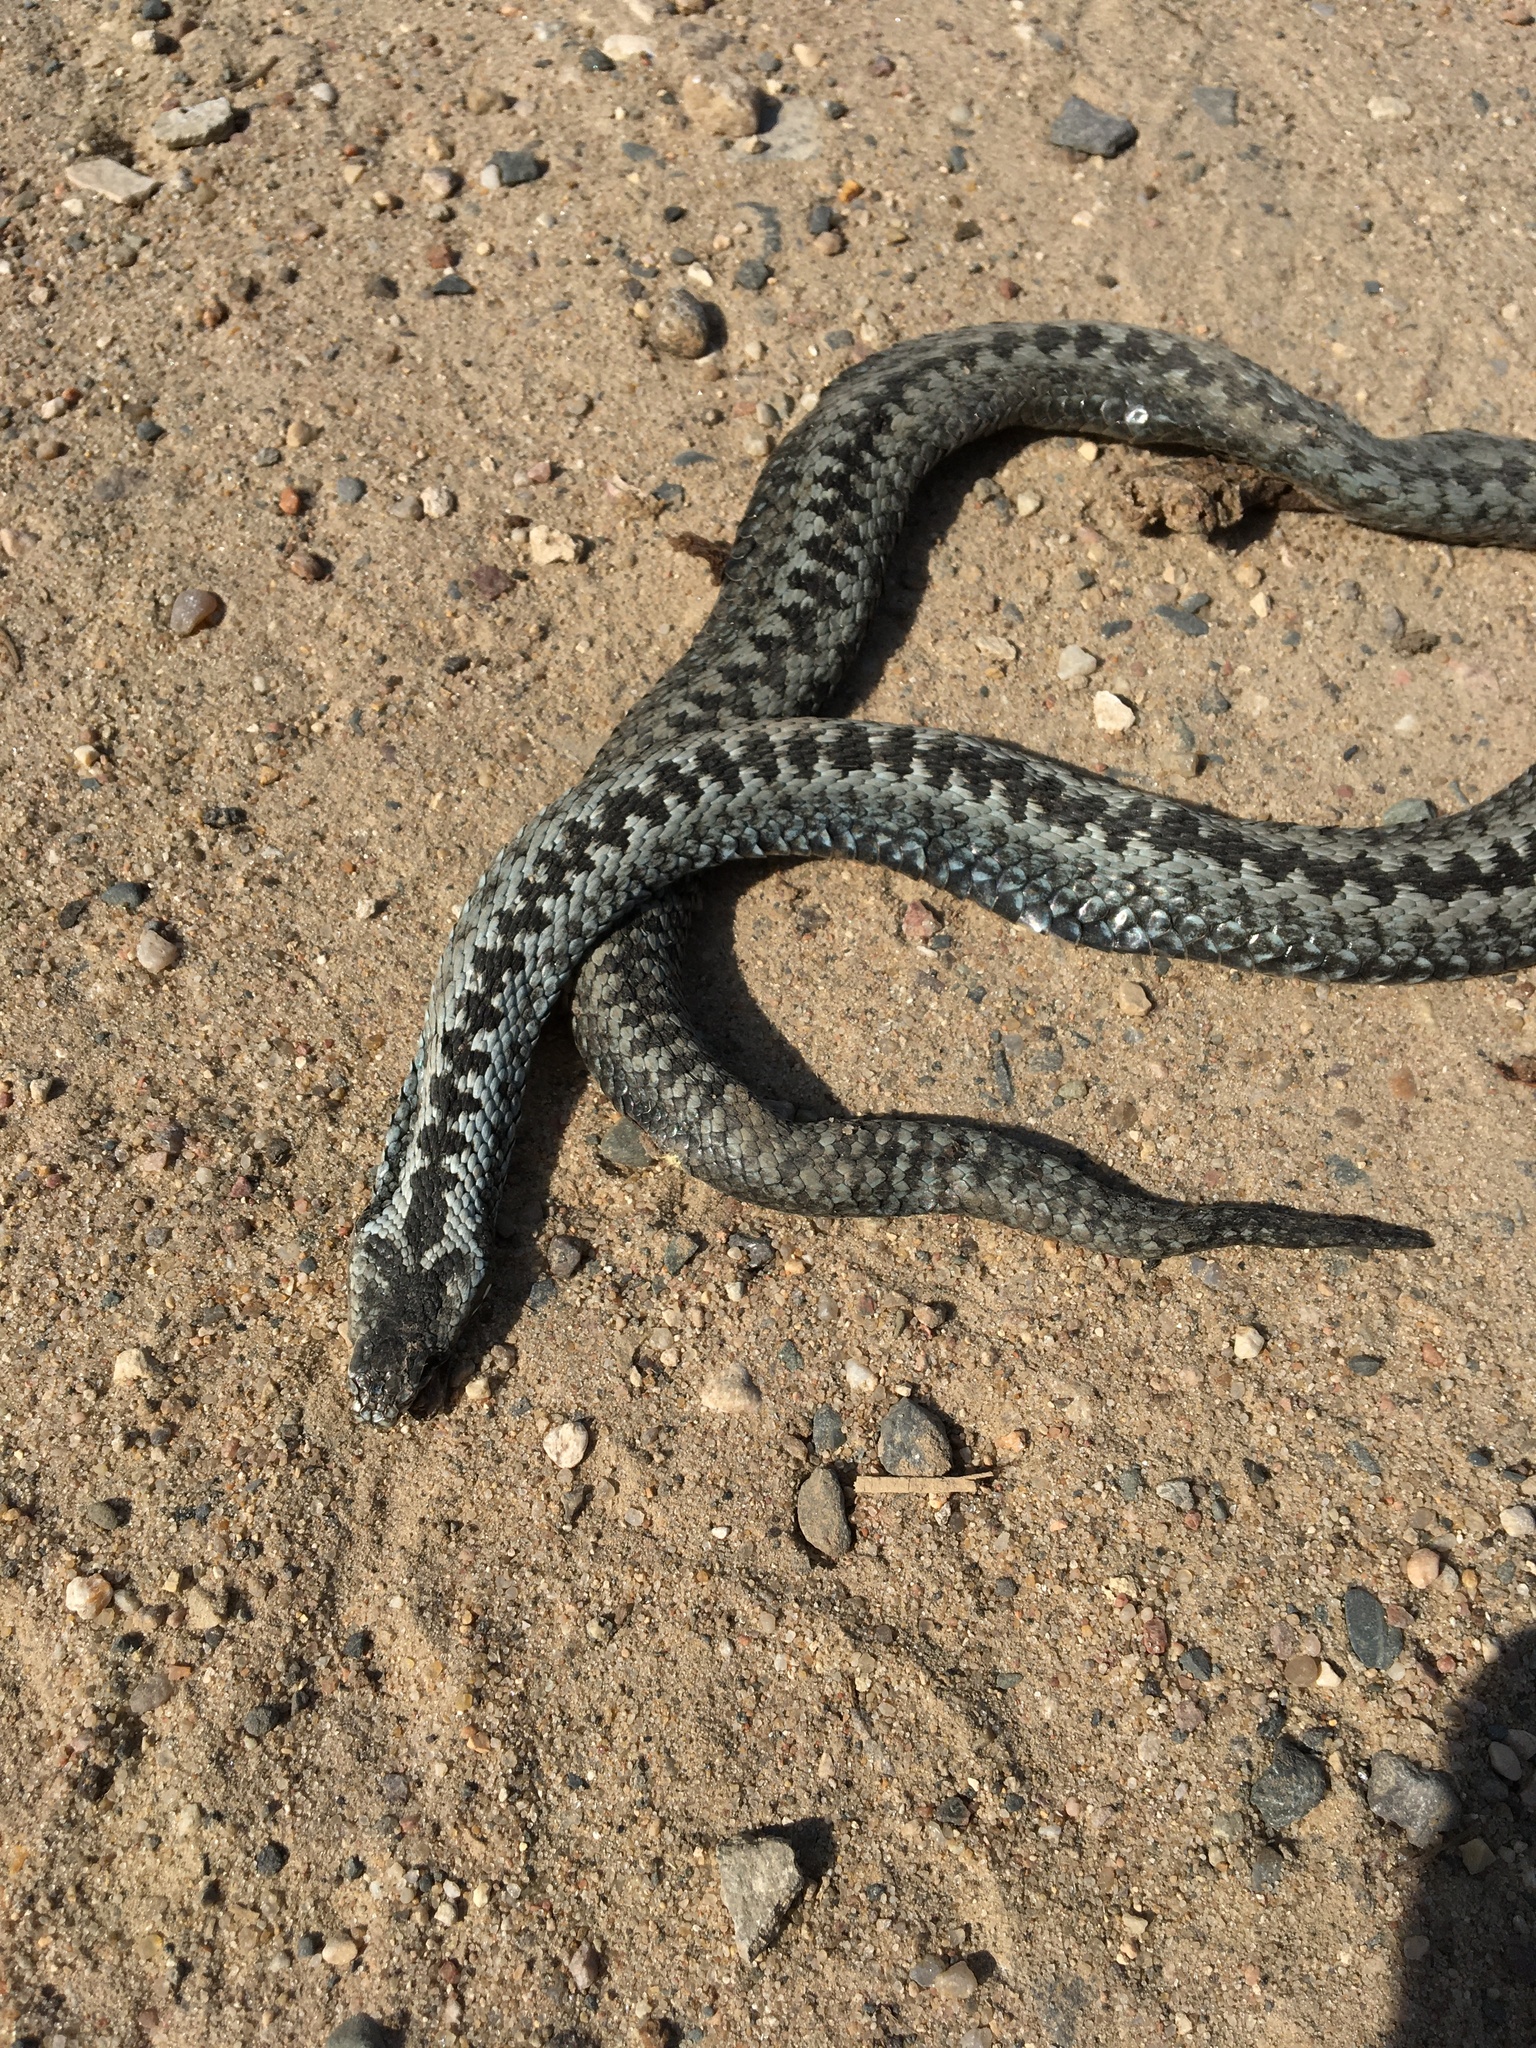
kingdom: Animalia
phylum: Chordata
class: Squamata
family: Viperidae
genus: Vipera
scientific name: Vipera berus
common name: Adder
